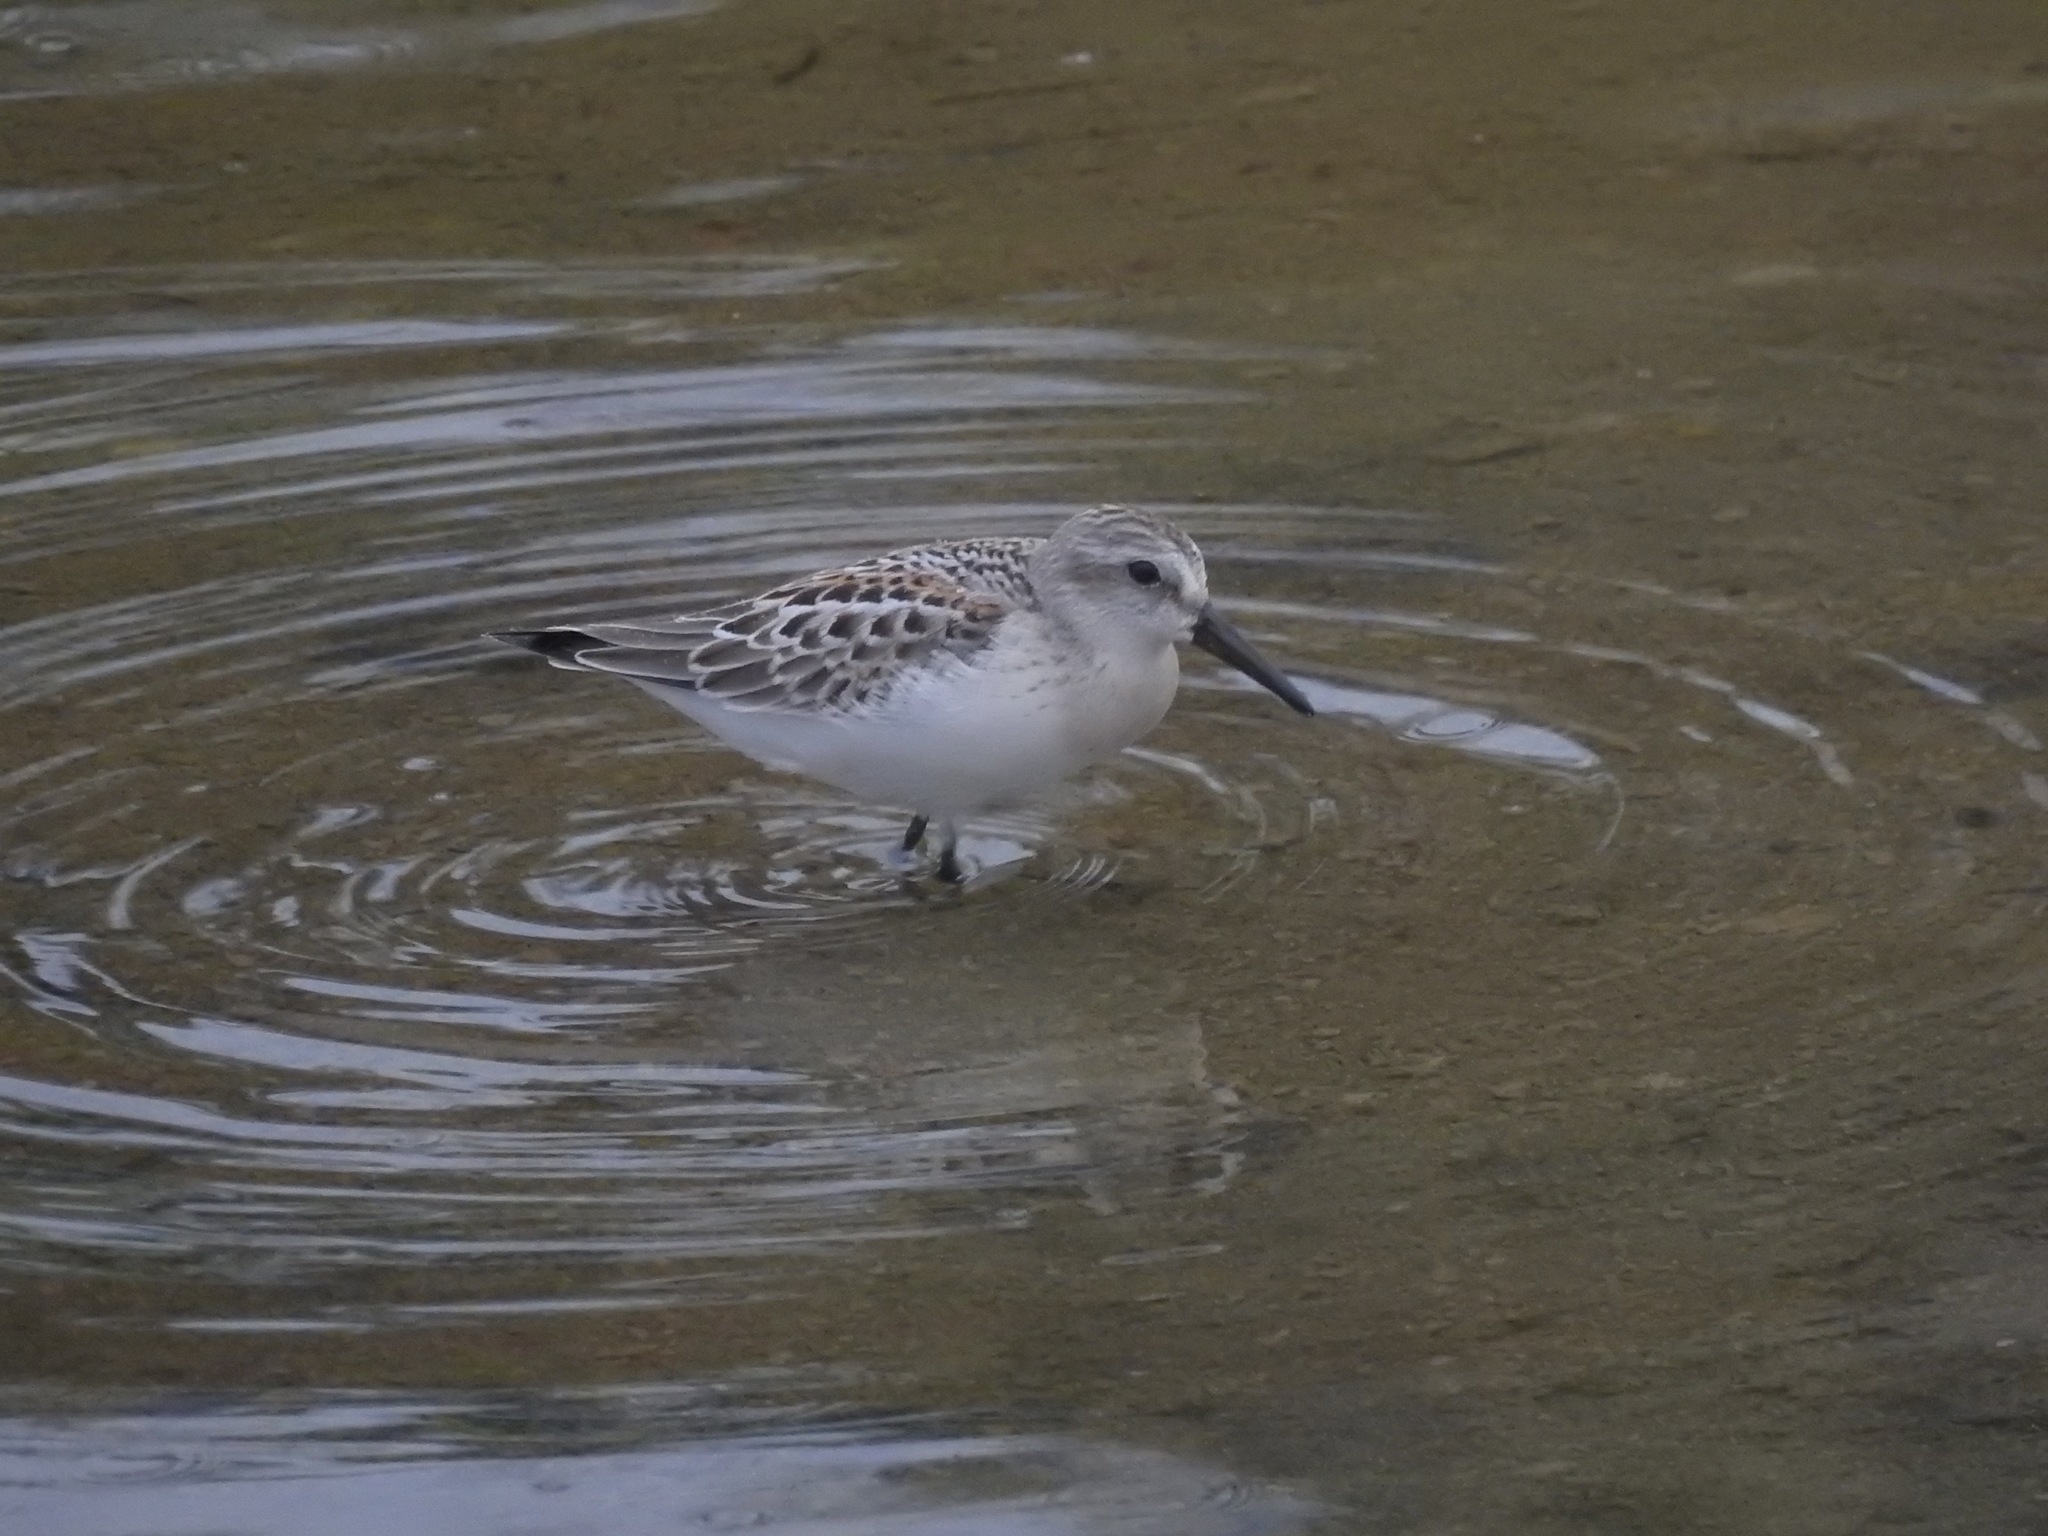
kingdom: Animalia
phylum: Chordata
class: Aves
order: Charadriiformes
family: Scolopacidae
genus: Calidris
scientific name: Calidris mauri
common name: Western sandpiper
